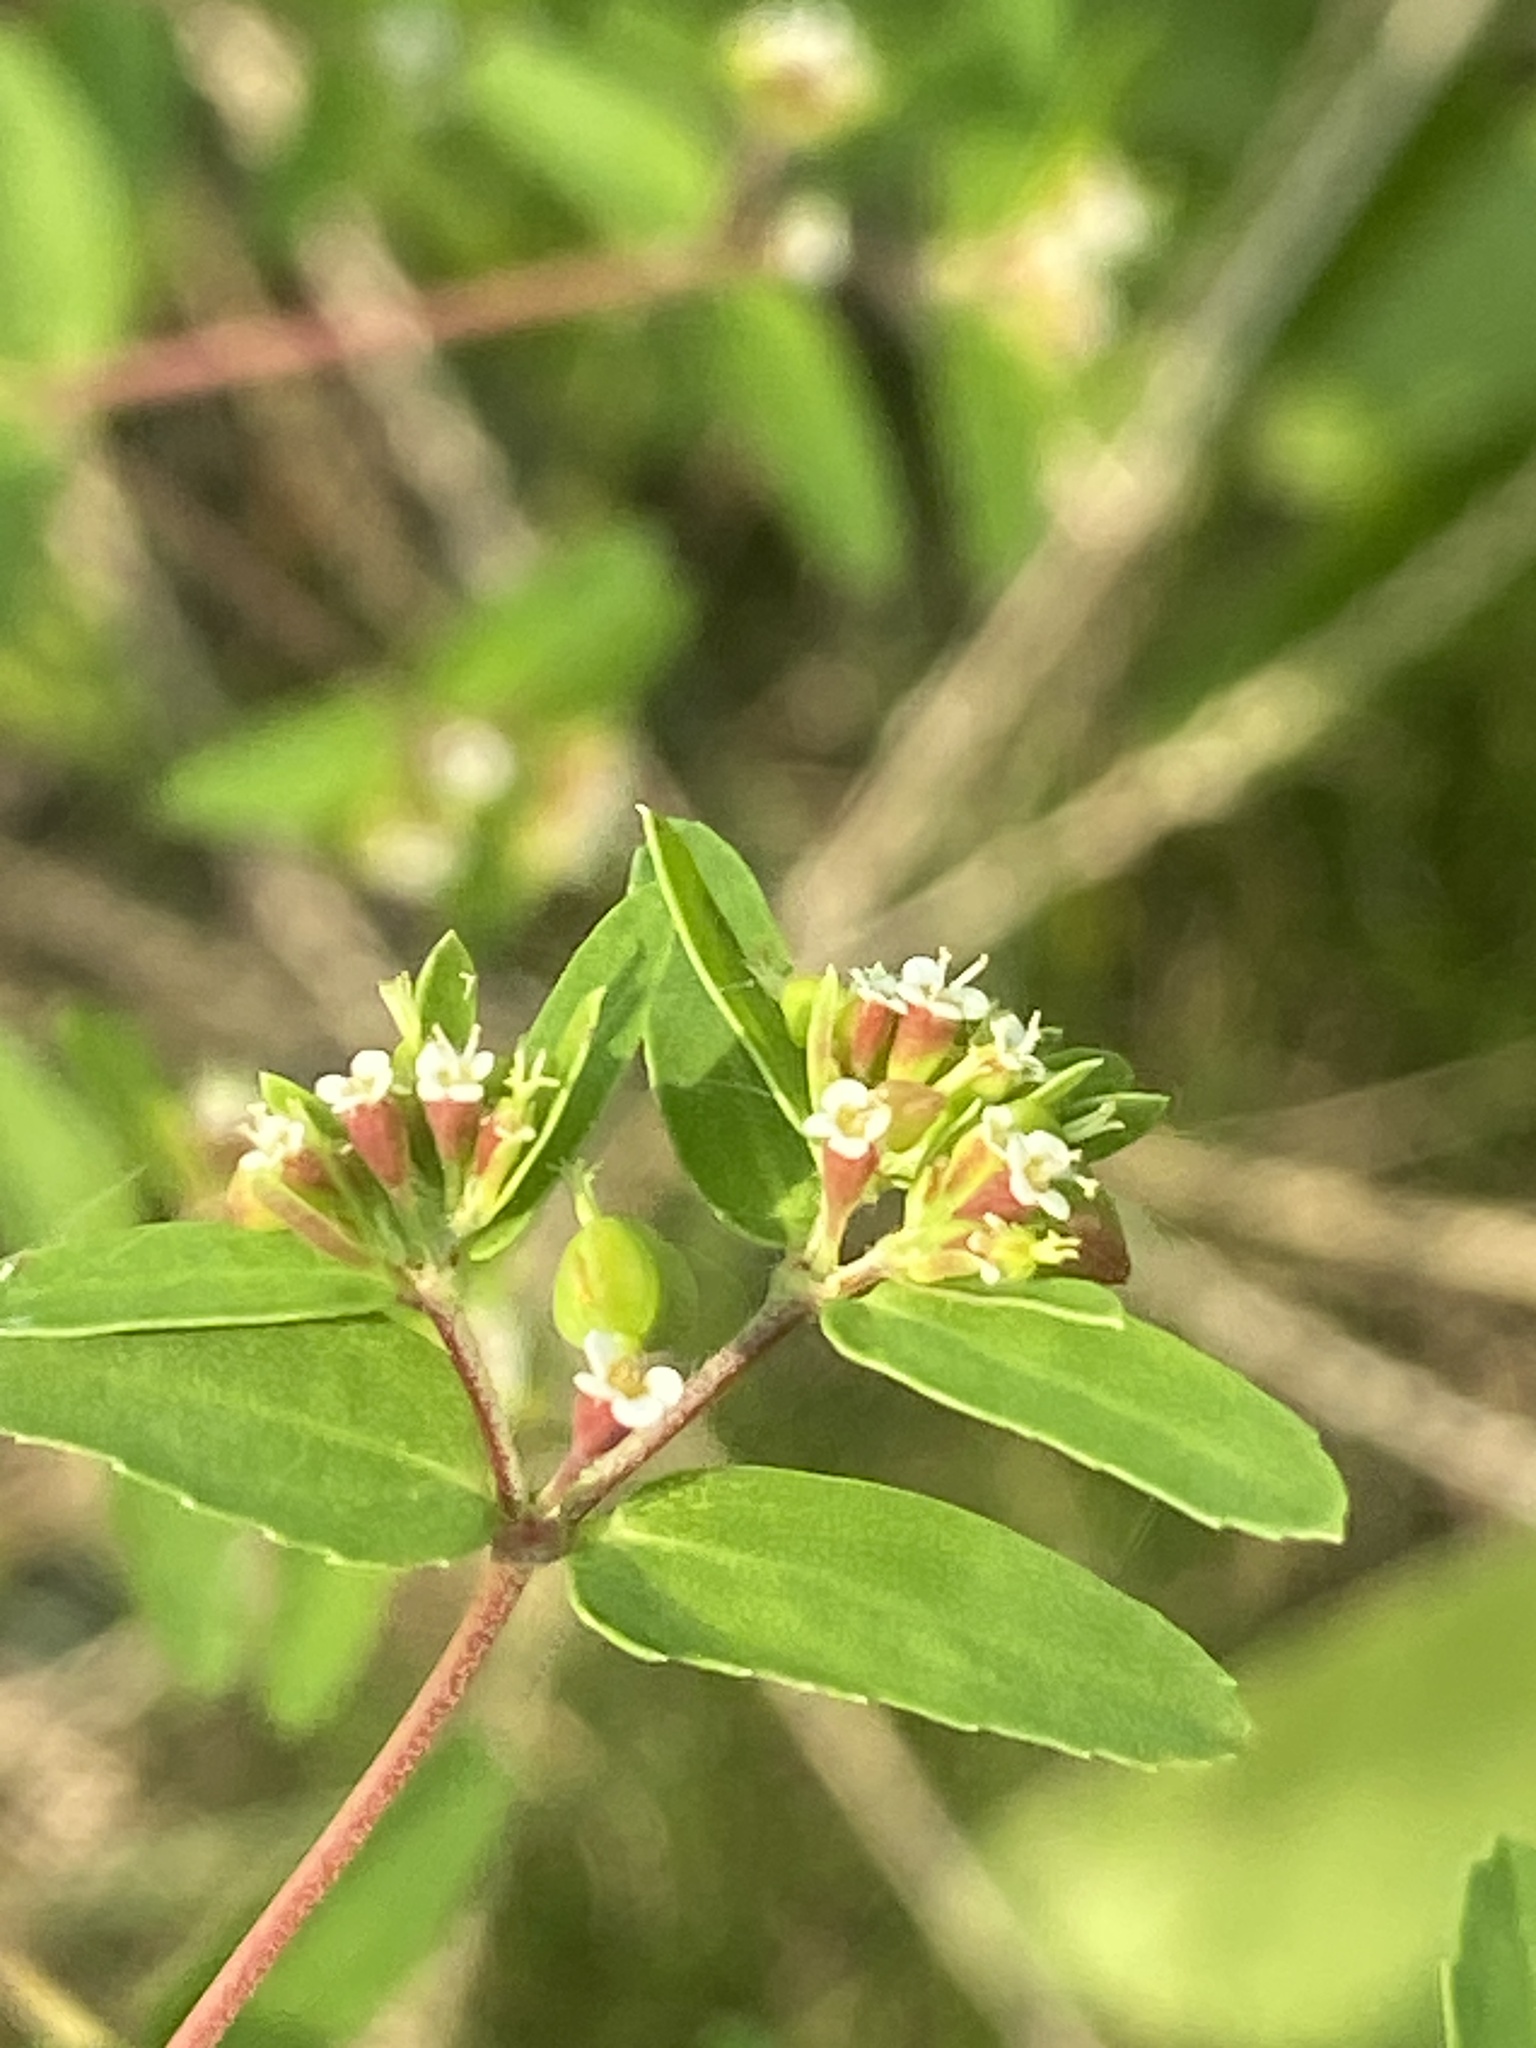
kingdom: Plantae
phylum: Tracheophyta
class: Magnoliopsida
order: Malpighiales
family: Euphorbiaceae
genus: Euphorbia
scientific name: Euphorbia nutans
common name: Eyebane
